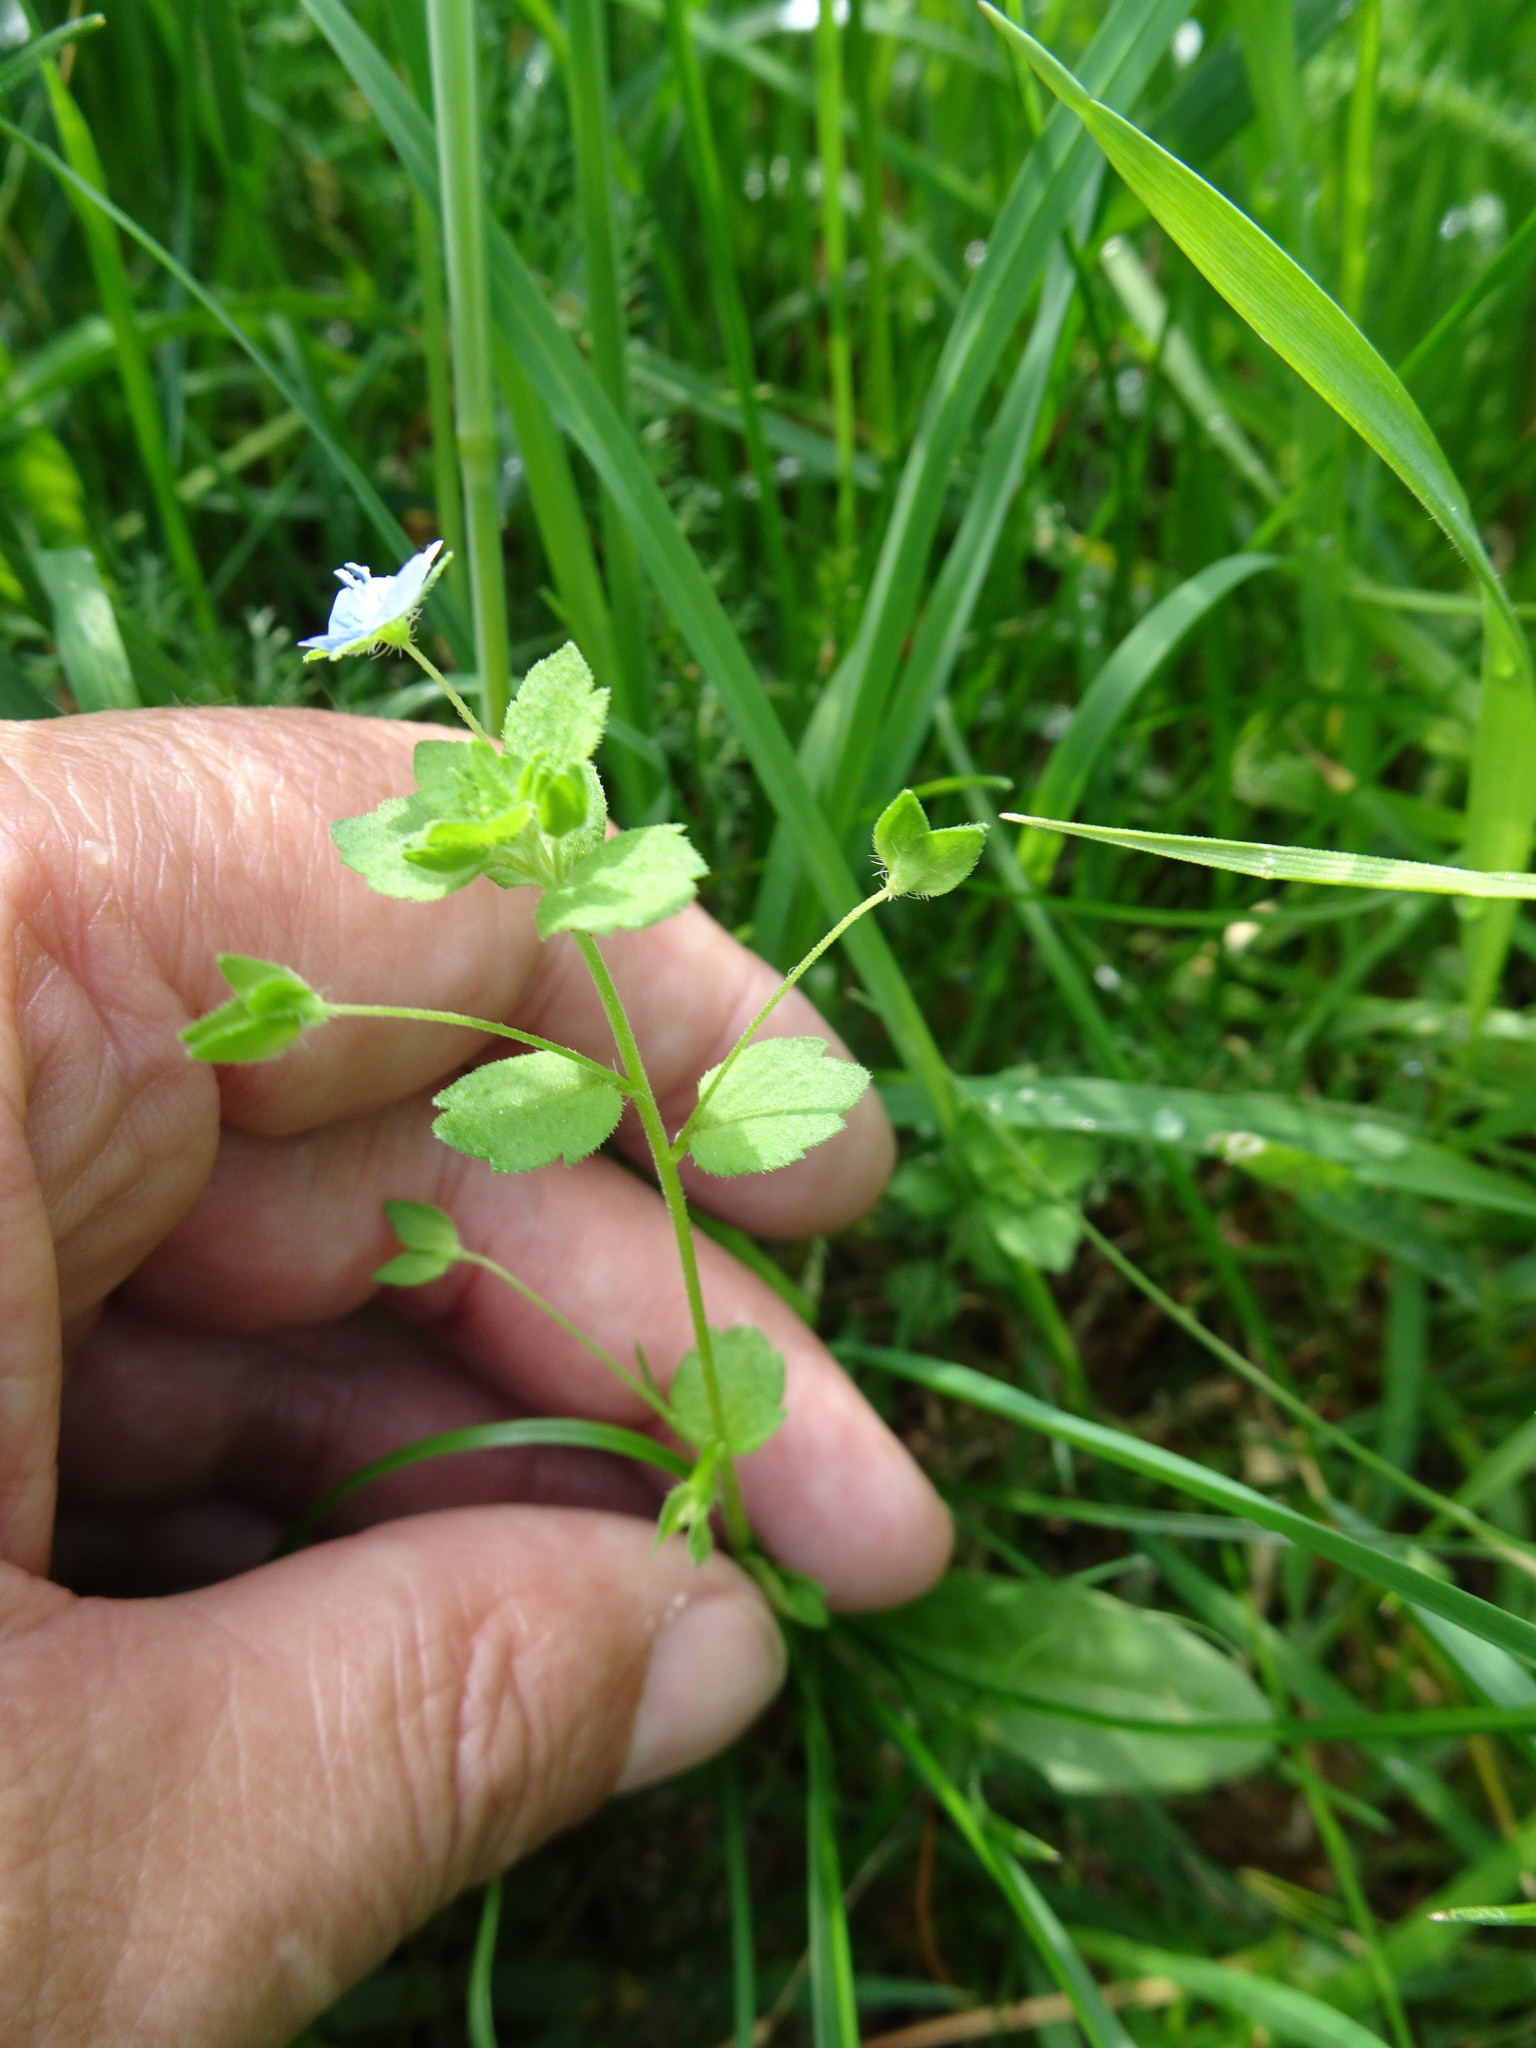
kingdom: Plantae
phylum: Tracheophyta
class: Magnoliopsida
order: Lamiales
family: Plantaginaceae
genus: Veronica
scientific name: Veronica persica
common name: Common field-speedwell
